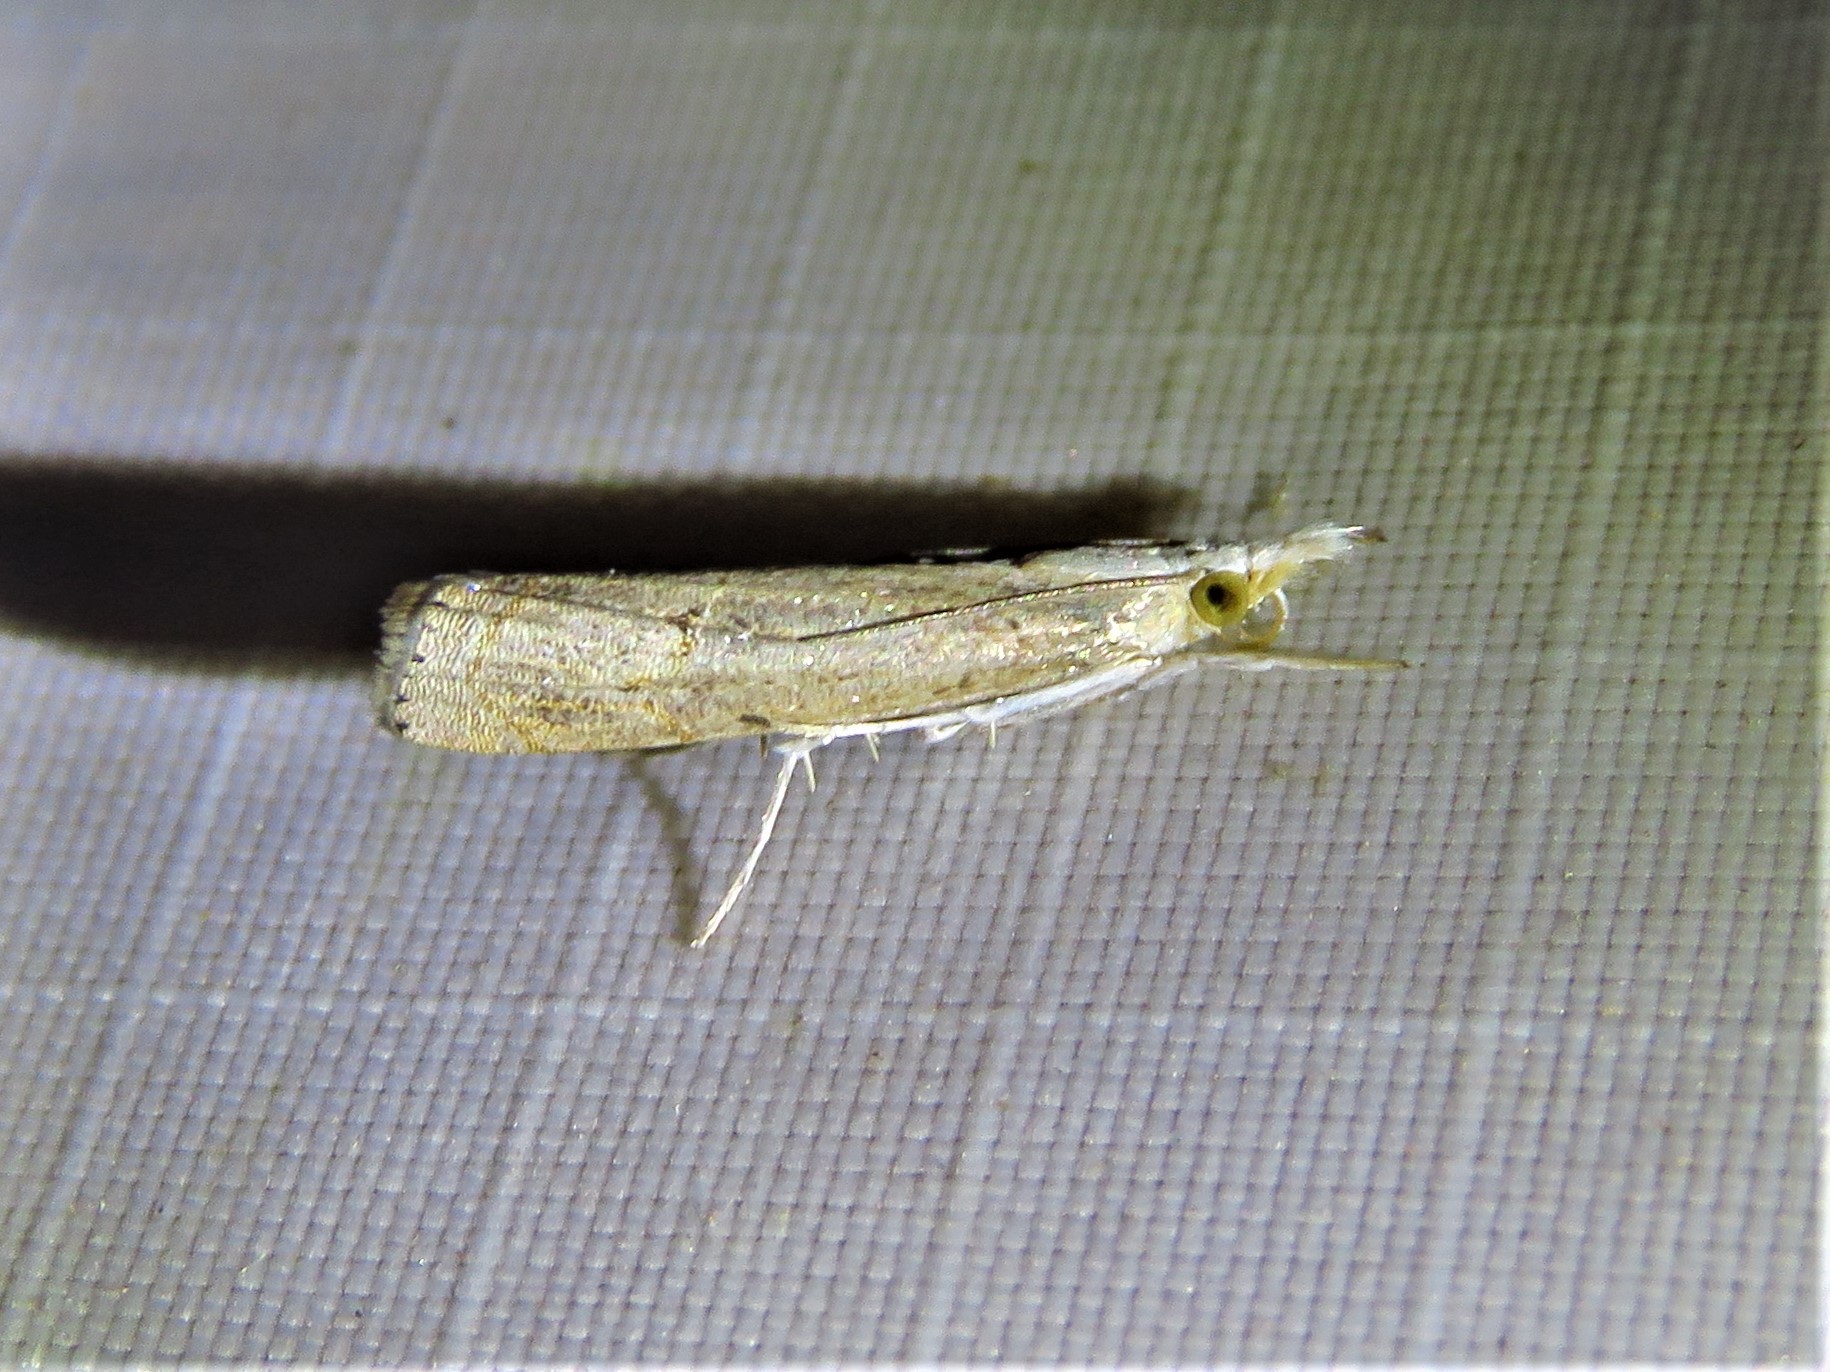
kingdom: Animalia
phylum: Arthropoda
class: Insecta
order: Lepidoptera
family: Crambidae
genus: Parapediasia
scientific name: Parapediasia teterellus
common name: Bluegrass webworm moth
